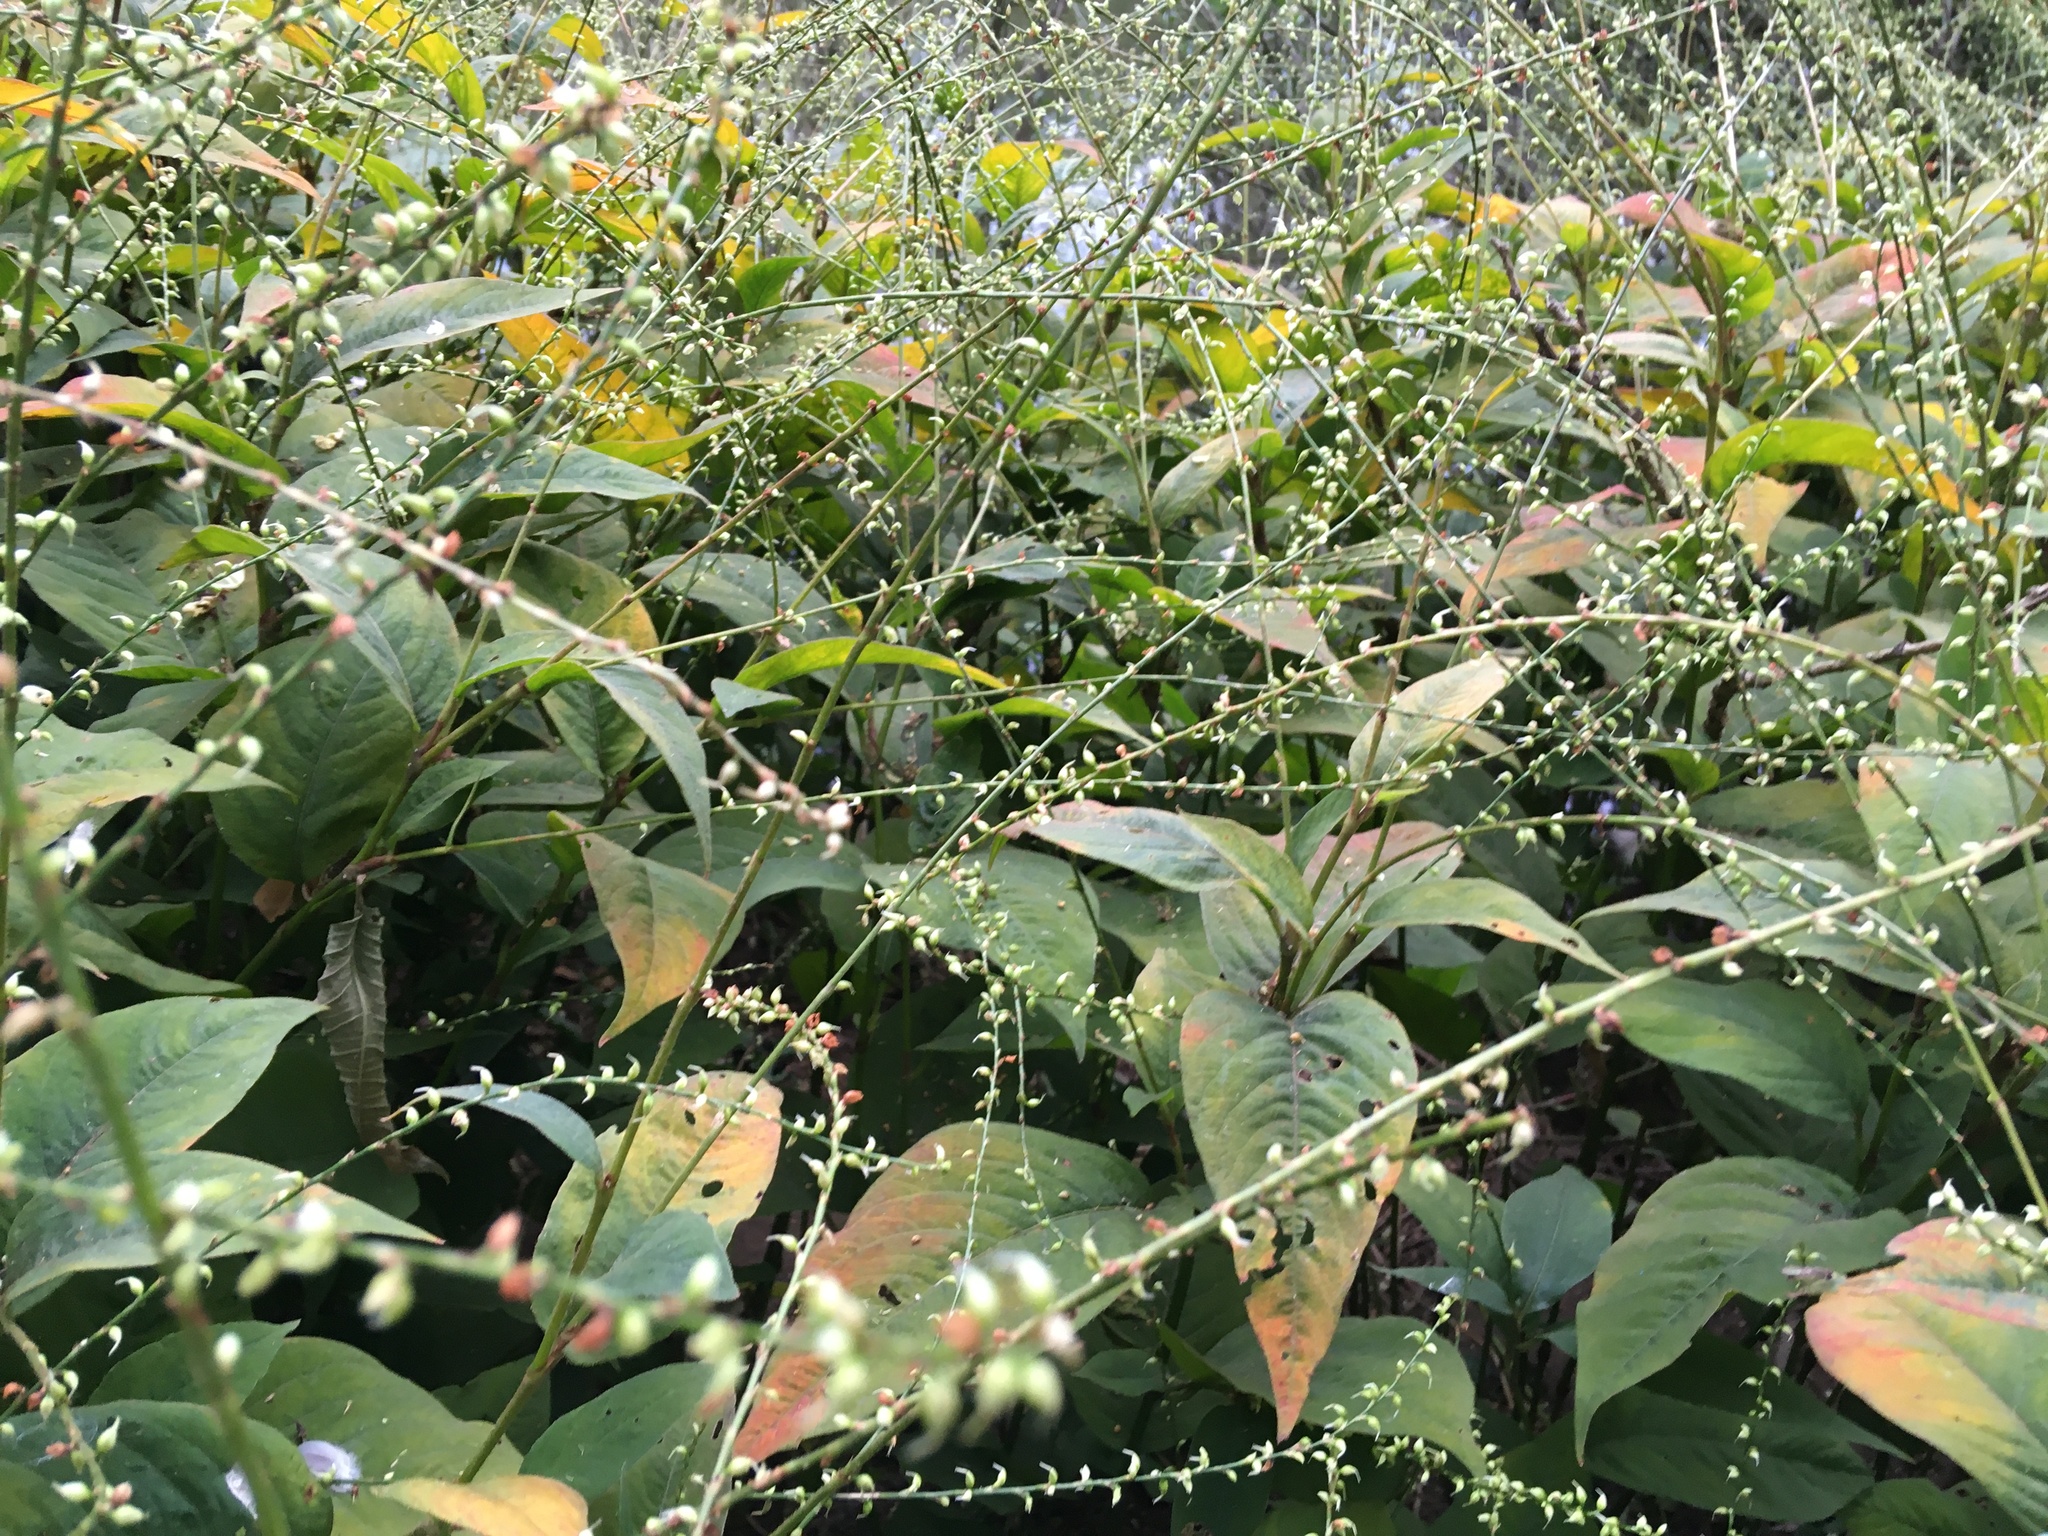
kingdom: Plantae
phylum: Tracheophyta
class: Magnoliopsida
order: Caryophyllales
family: Polygonaceae
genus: Persicaria
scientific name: Persicaria virginiana
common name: Jumpseed
